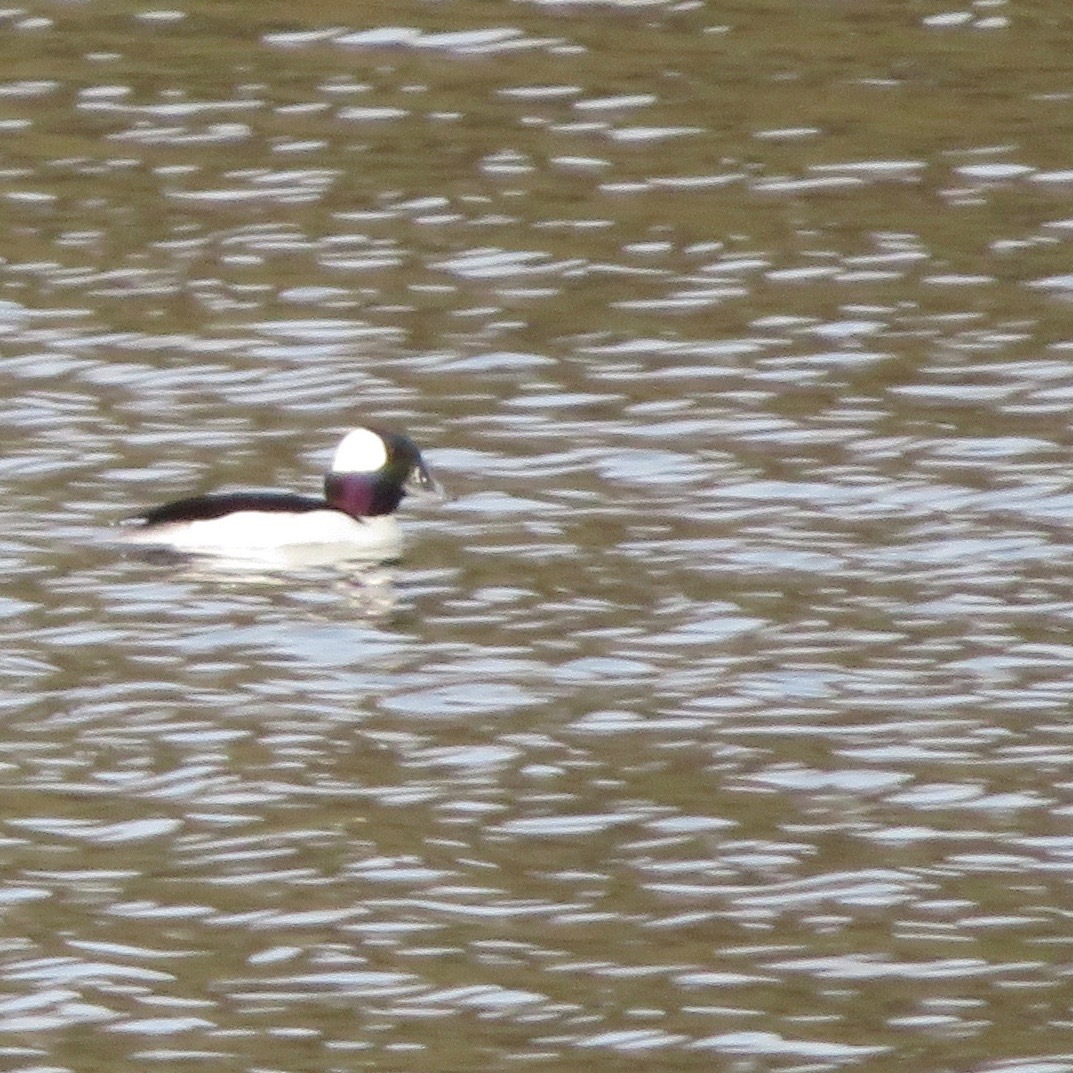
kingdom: Animalia
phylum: Chordata
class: Aves
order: Anseriformes
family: Anatidae
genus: Bucephala
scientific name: Bucephala albeola
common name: Bufflehead
